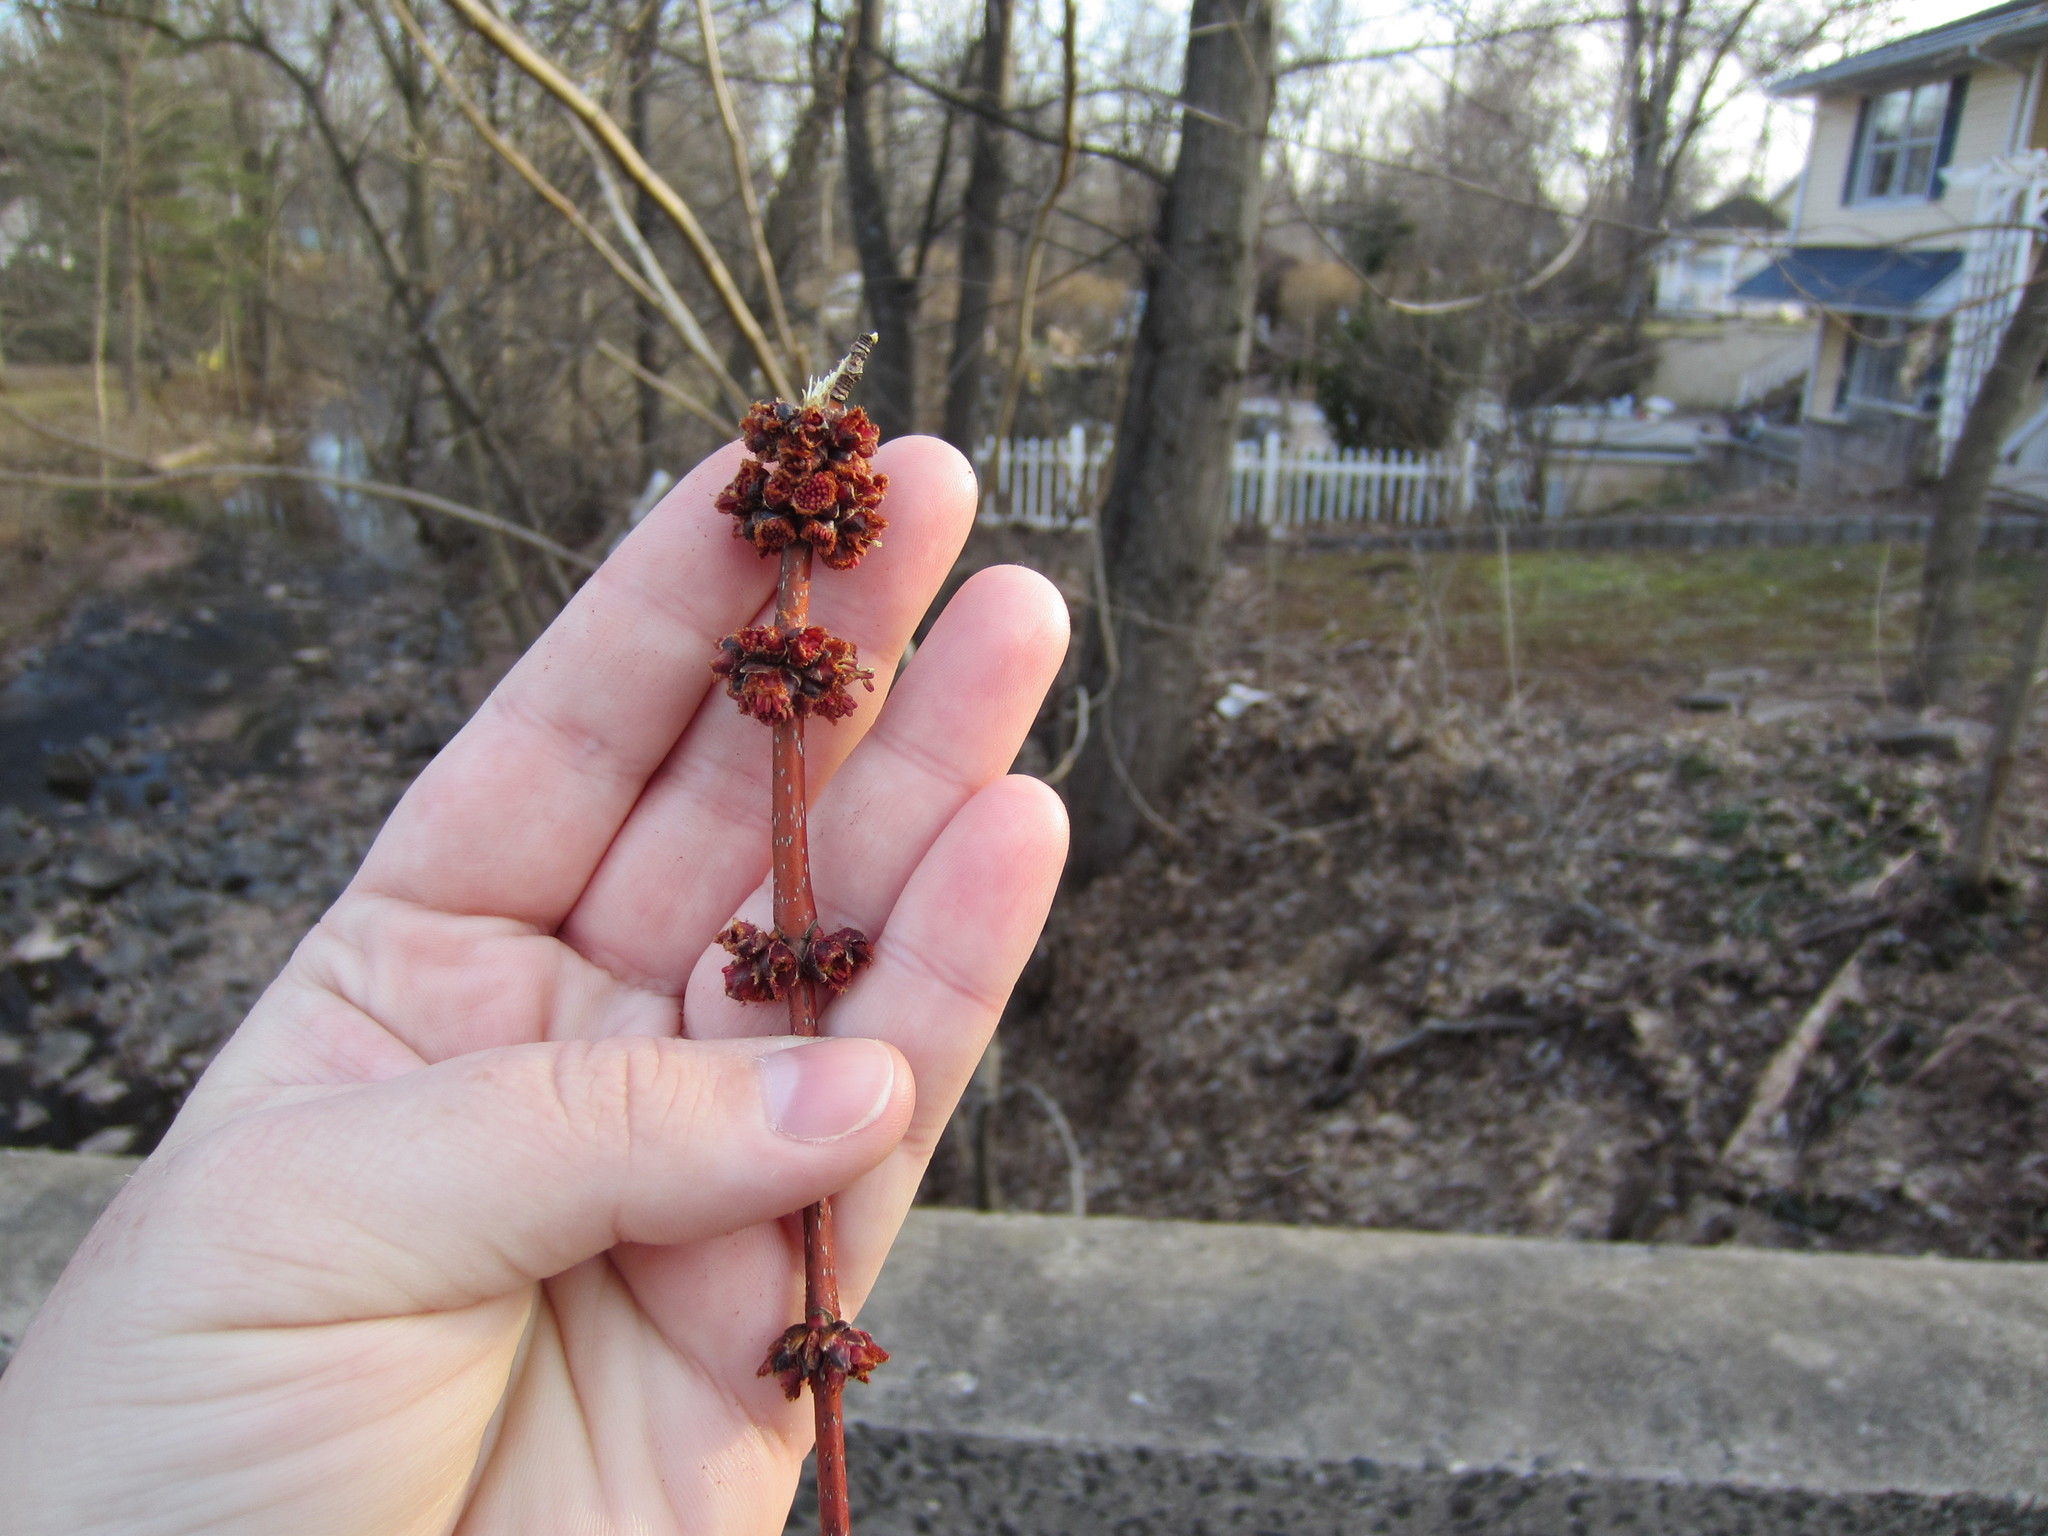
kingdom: Plantae
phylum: Tracheophyta
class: Magnoliopsida
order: Sapindales
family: Sapindaceae
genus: Acer
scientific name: Acer saccharinum
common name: Silver maple
